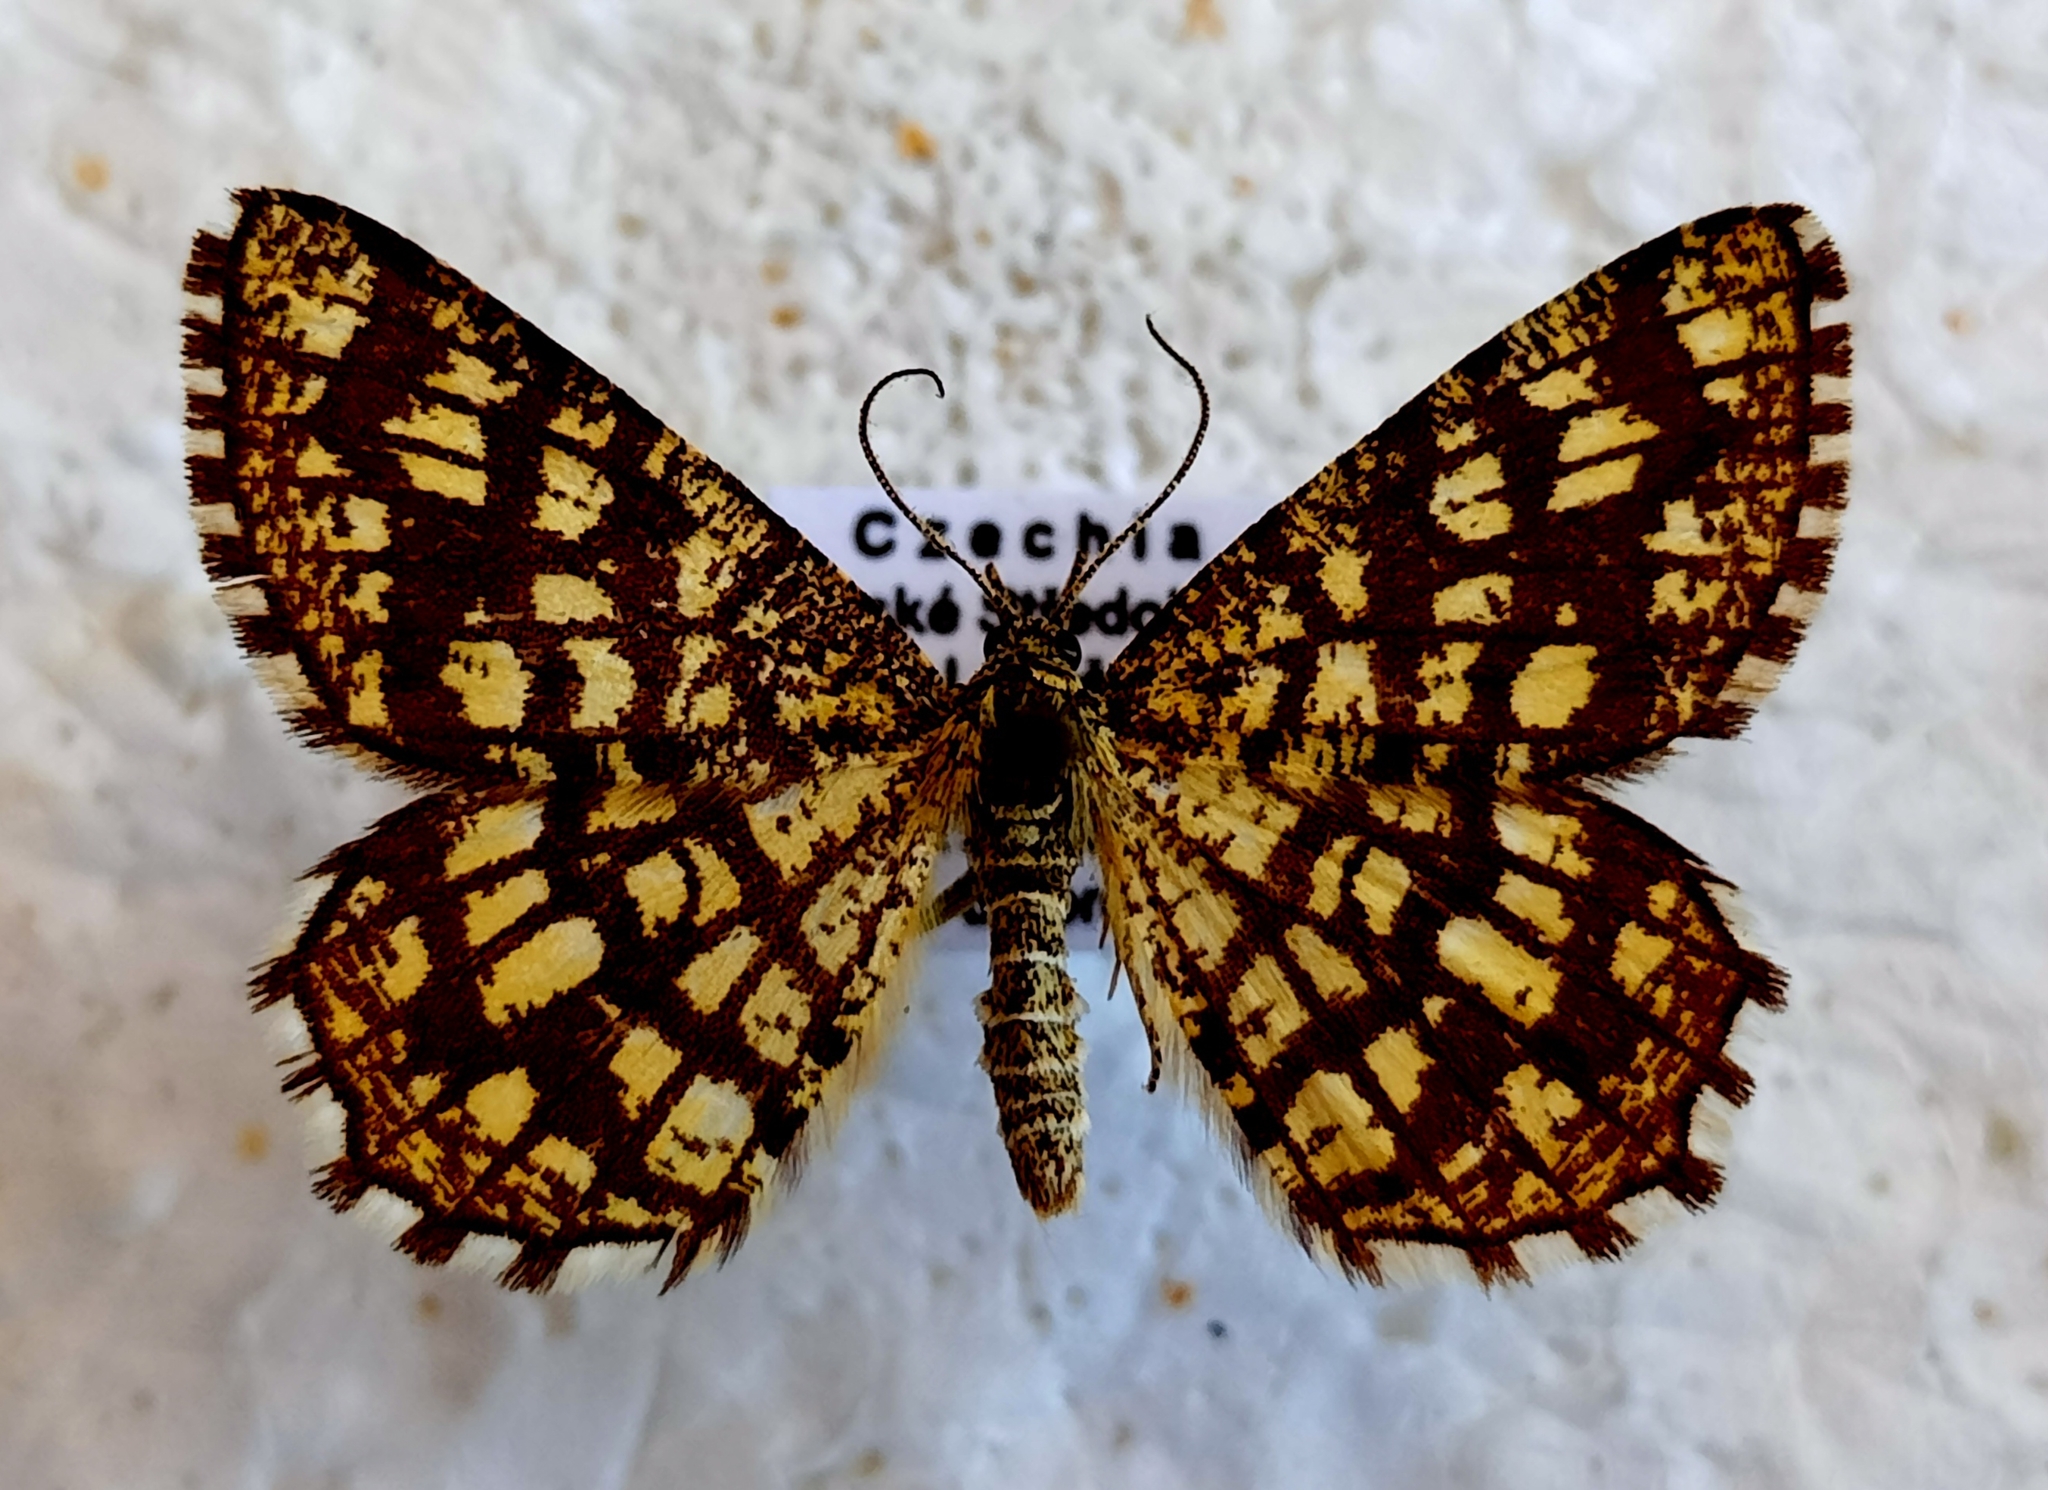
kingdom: Animalia
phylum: Arthropoda
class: Insecta
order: Lepidoptera
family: Geometridae
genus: Chiasmia
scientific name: Chiasmia clathrata
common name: Latticed heath
